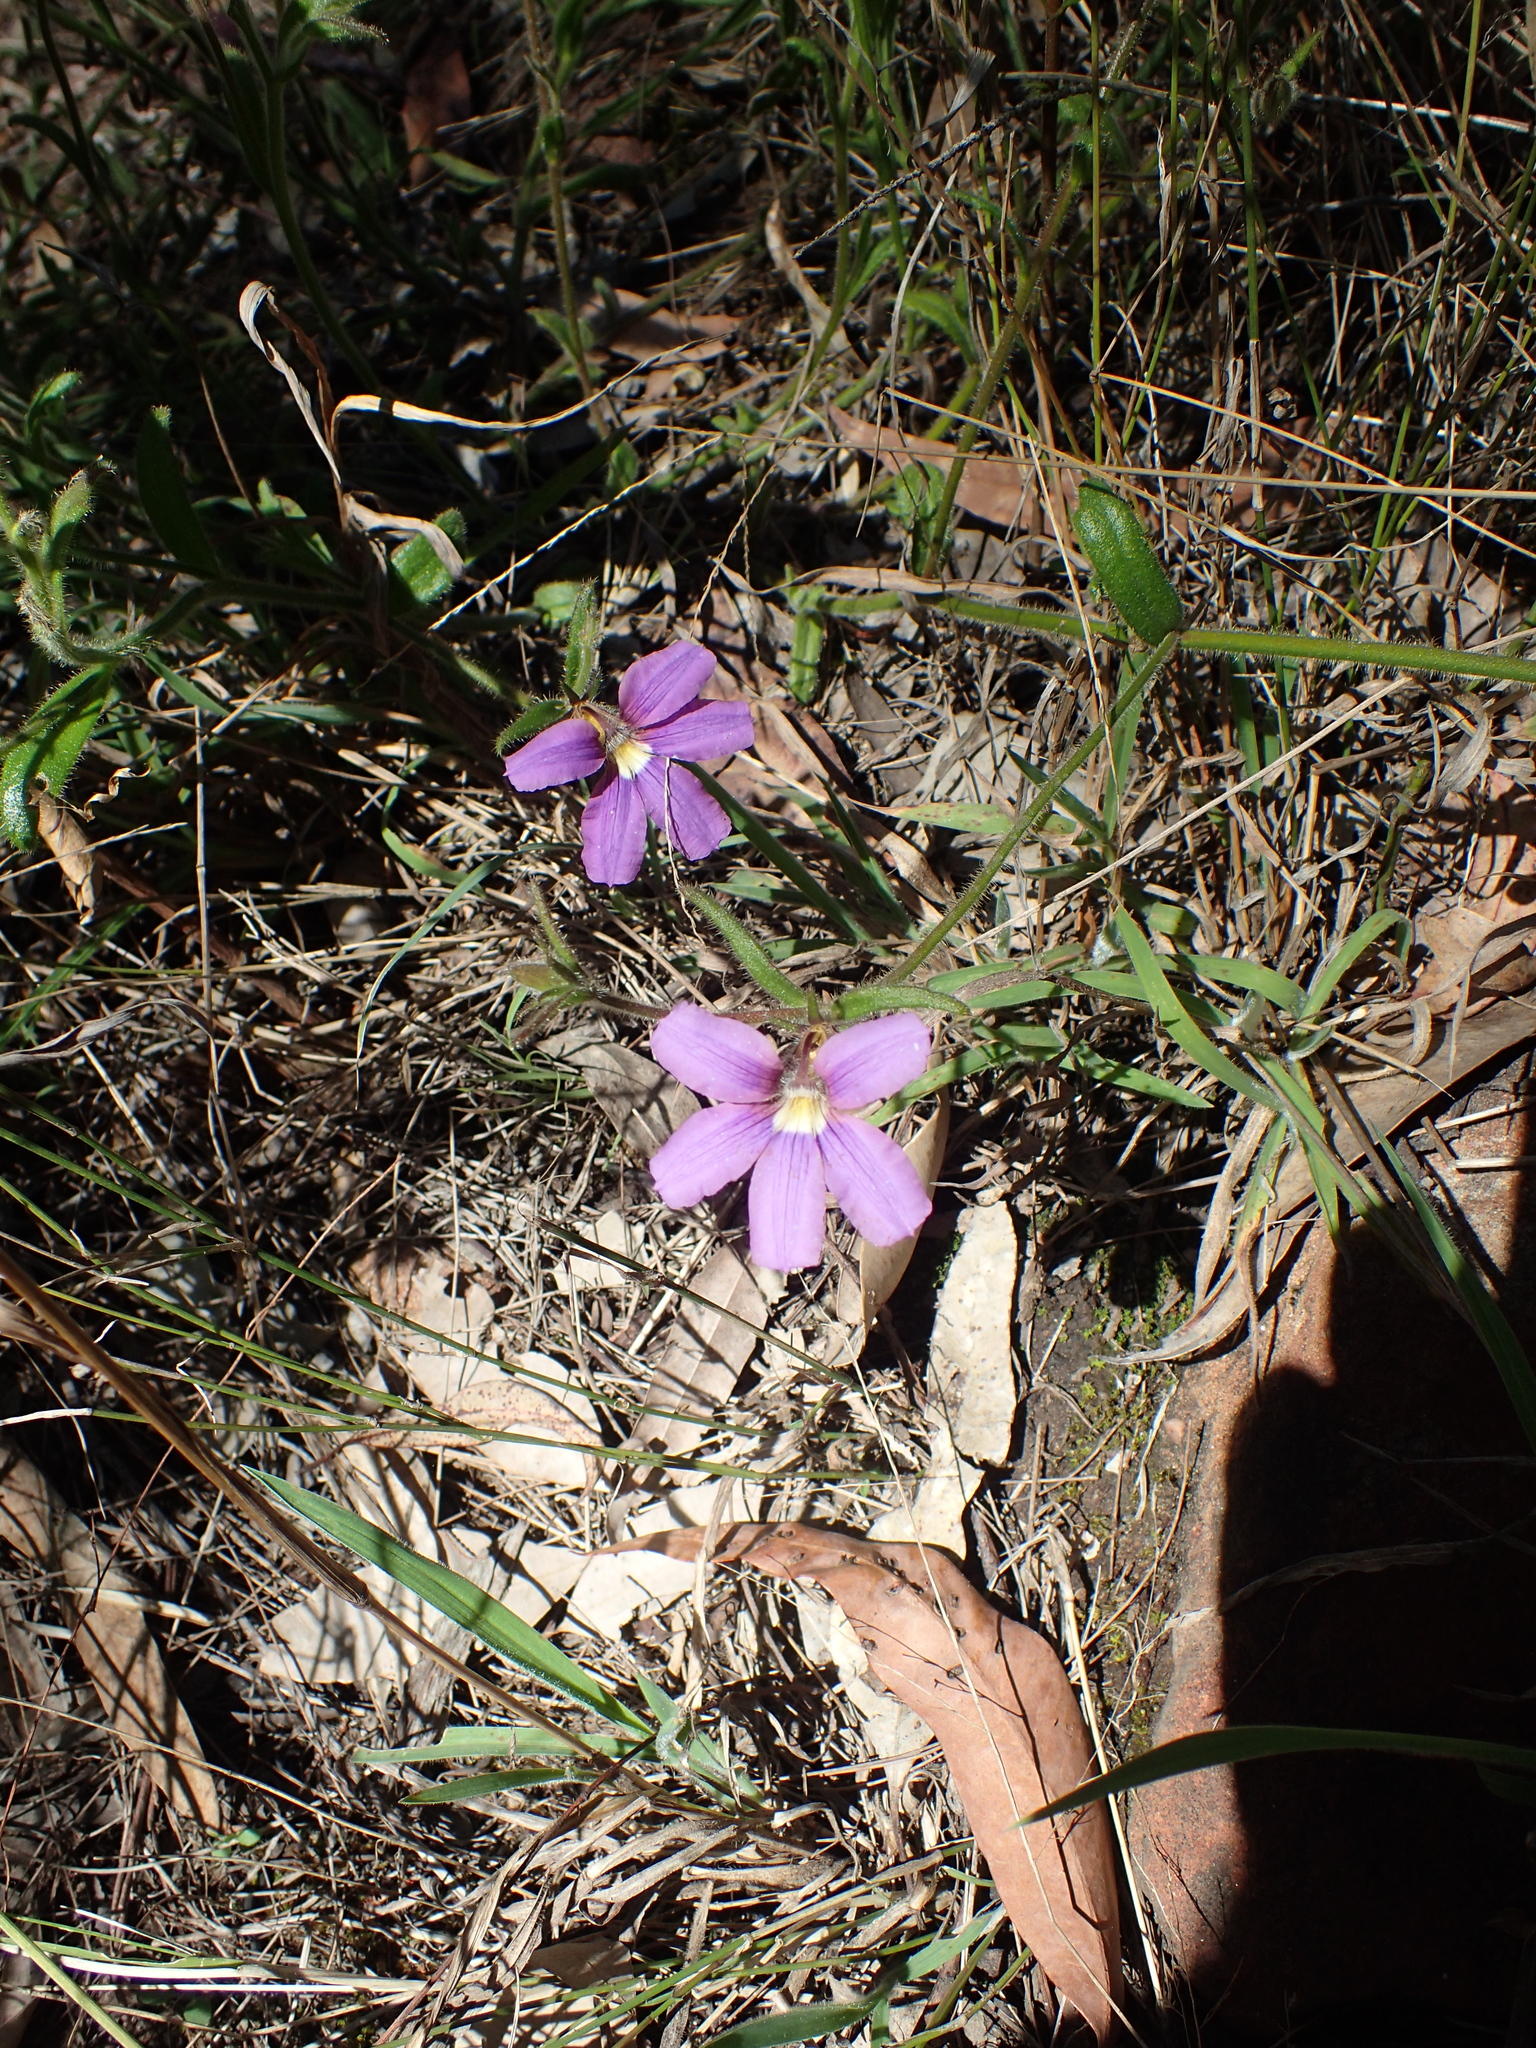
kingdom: Plantae
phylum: Tracheophyta
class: Magnoliopsida
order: Asterales
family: Goodeniaceae
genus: Scaevola
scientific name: Scaevola ramosissima
